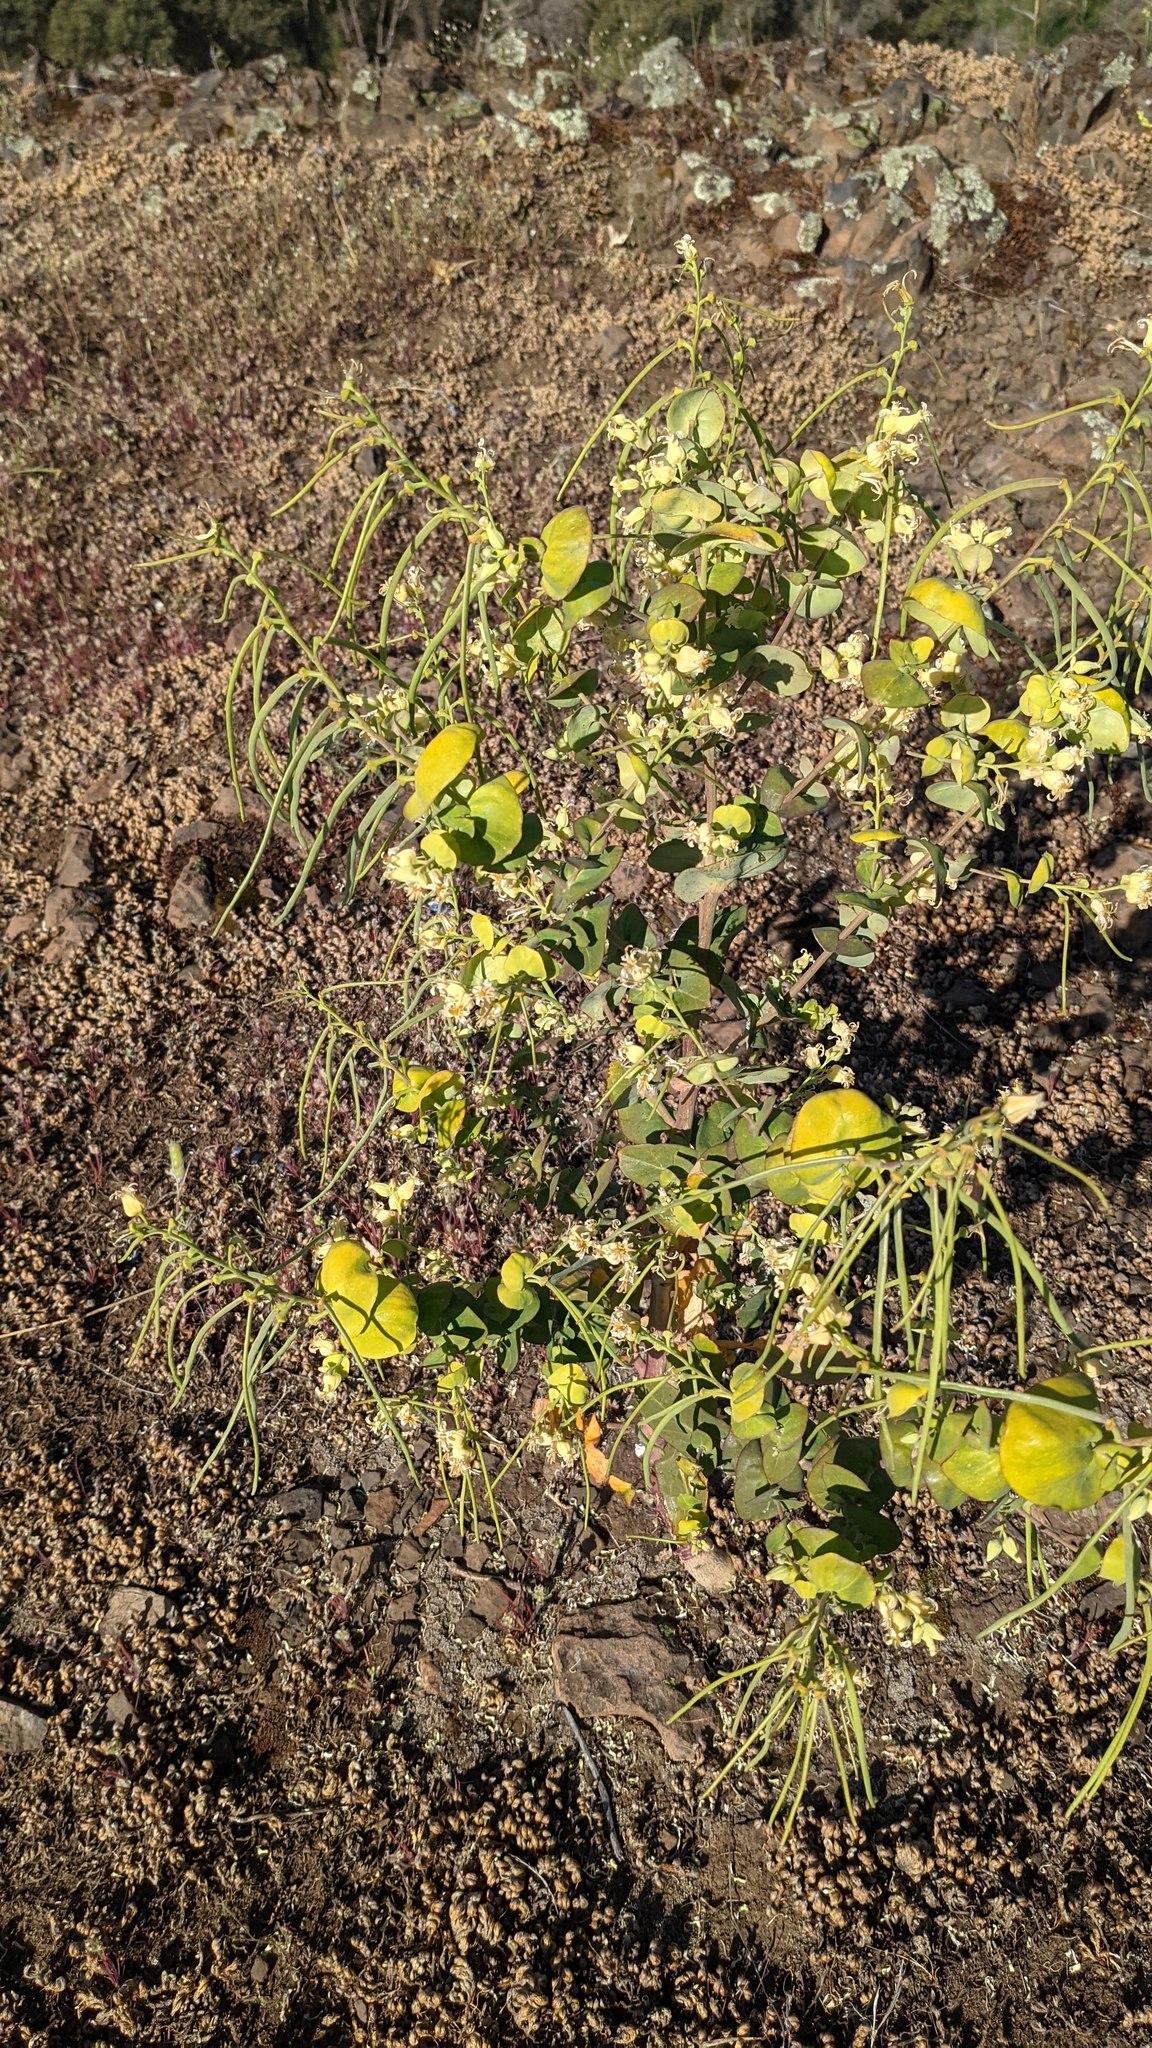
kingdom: Plantae
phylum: Tracheophyta
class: Magnoliopsida
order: Brassicales
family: Brassicaceae
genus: Streptanthus
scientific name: Streptanthus tortuosus
